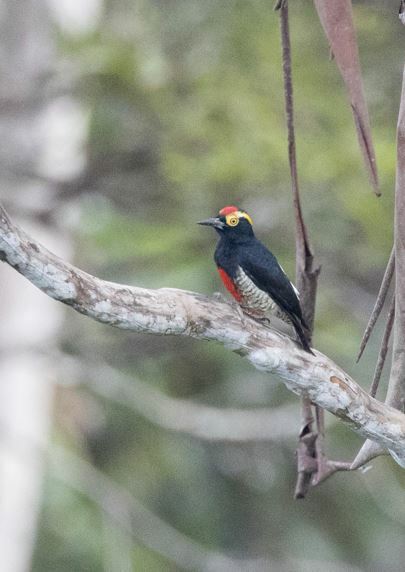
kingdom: Animalia
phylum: Chordata
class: Aves
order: Piciformes
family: Picidae
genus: Melanerpes
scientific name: Melanerpes cruentatus
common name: Yellow-tufted woodpecker
